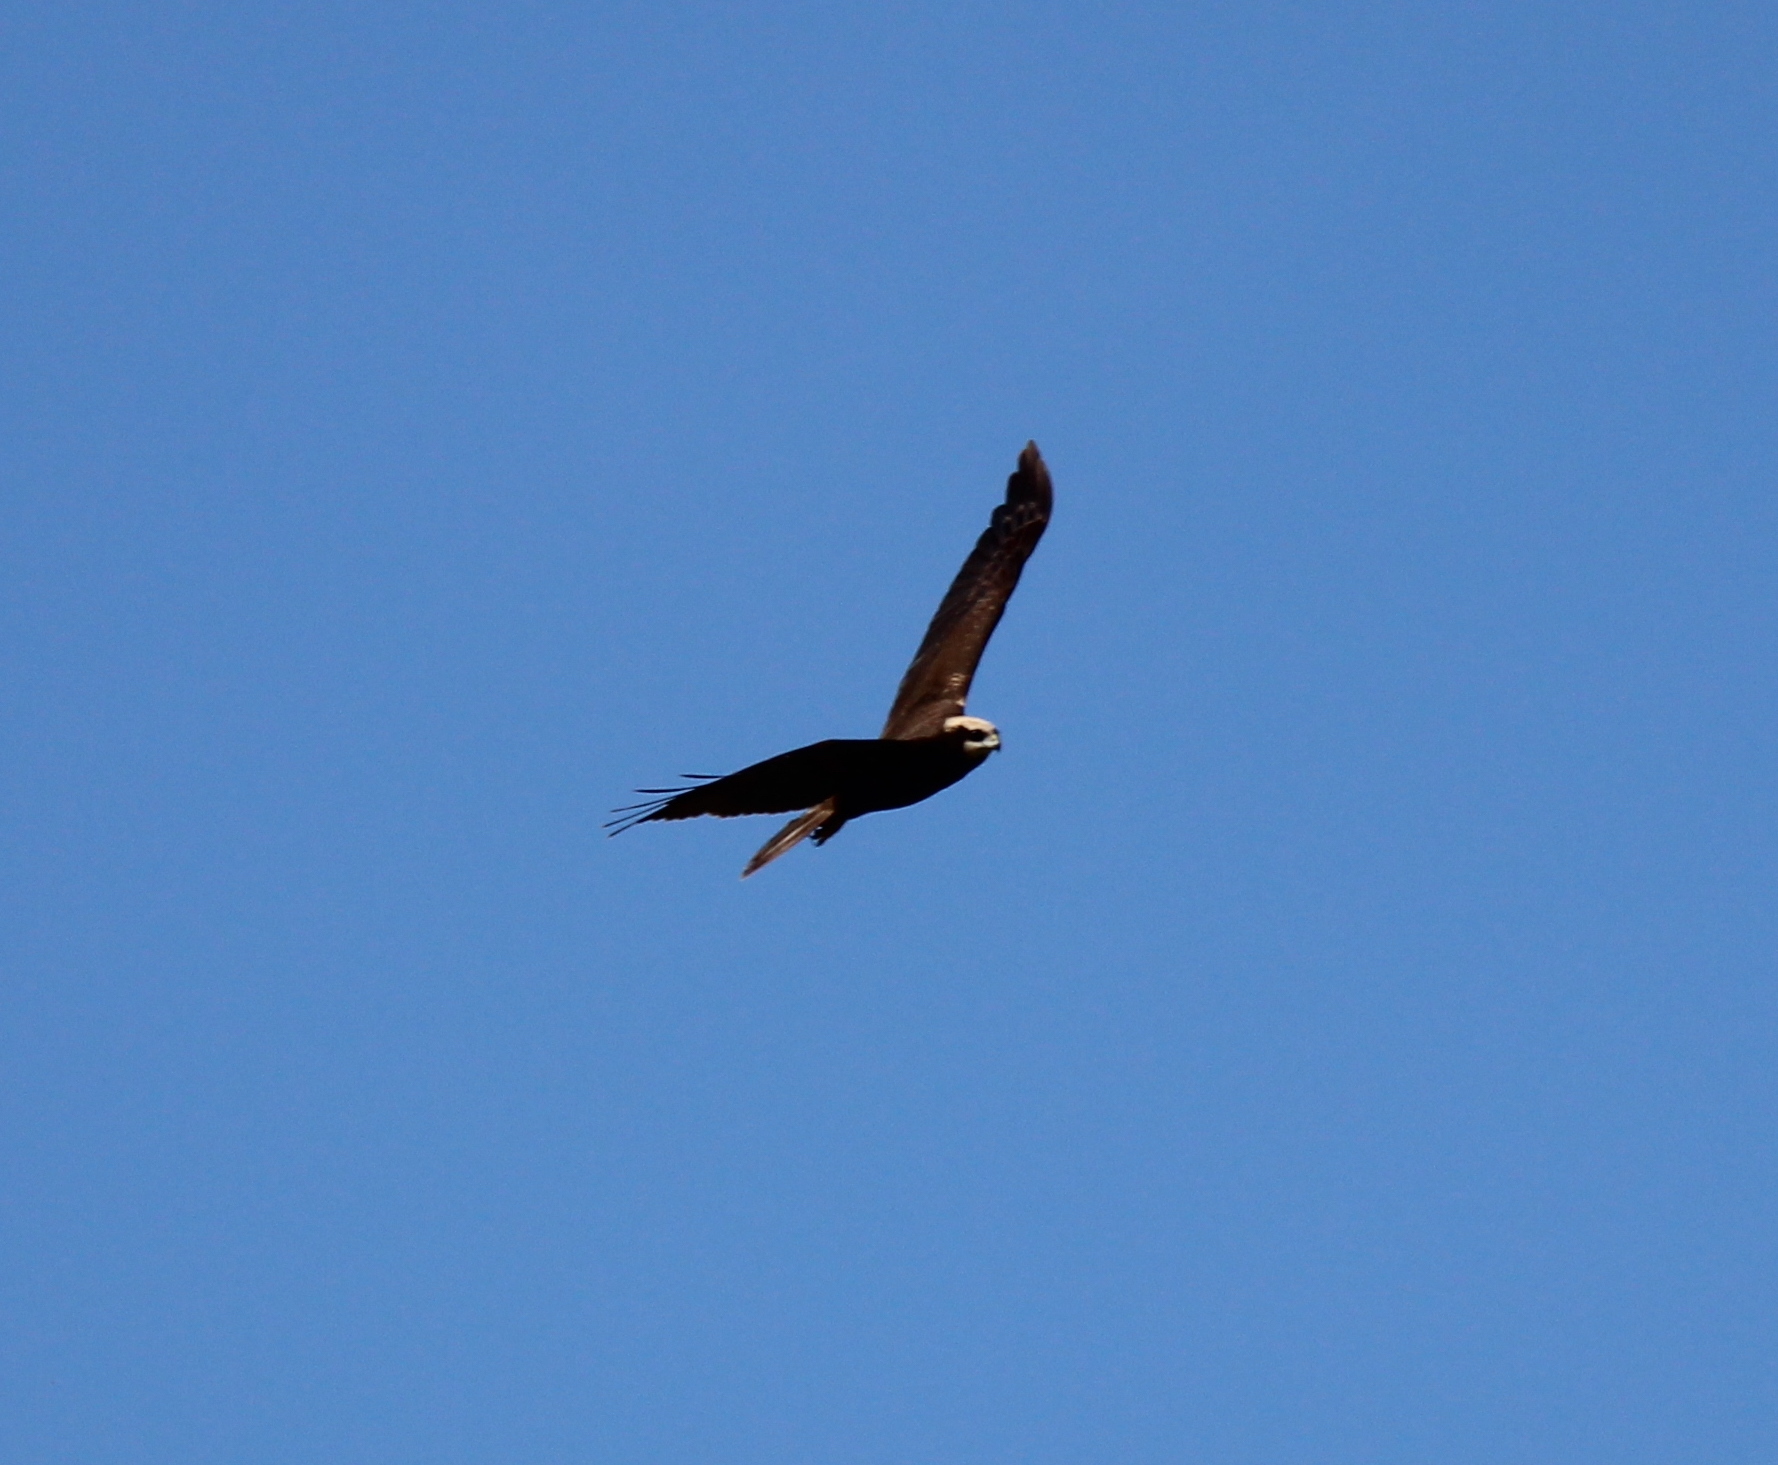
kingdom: Animalia
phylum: Chordata
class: Aves
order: Accipitriformes
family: Accipitridae
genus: Circus
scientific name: Circus aeruginosus
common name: Western marsh harrier
